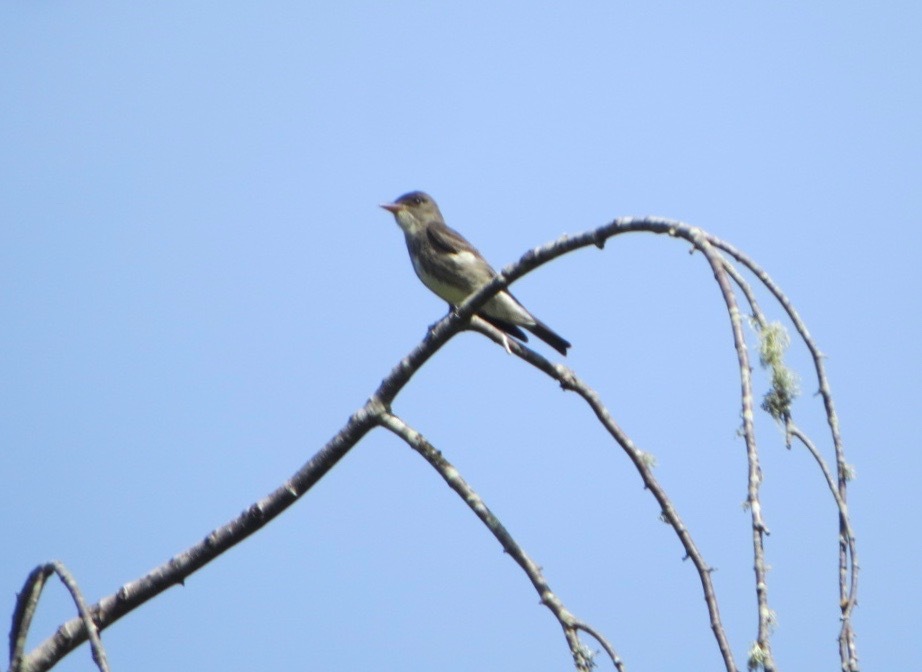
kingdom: Animalia
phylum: Chordata
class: Aves
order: Passeriformes
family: Tyrannidae
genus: Contopus
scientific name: Contopus cooperi
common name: Olive-sided flycatcher
